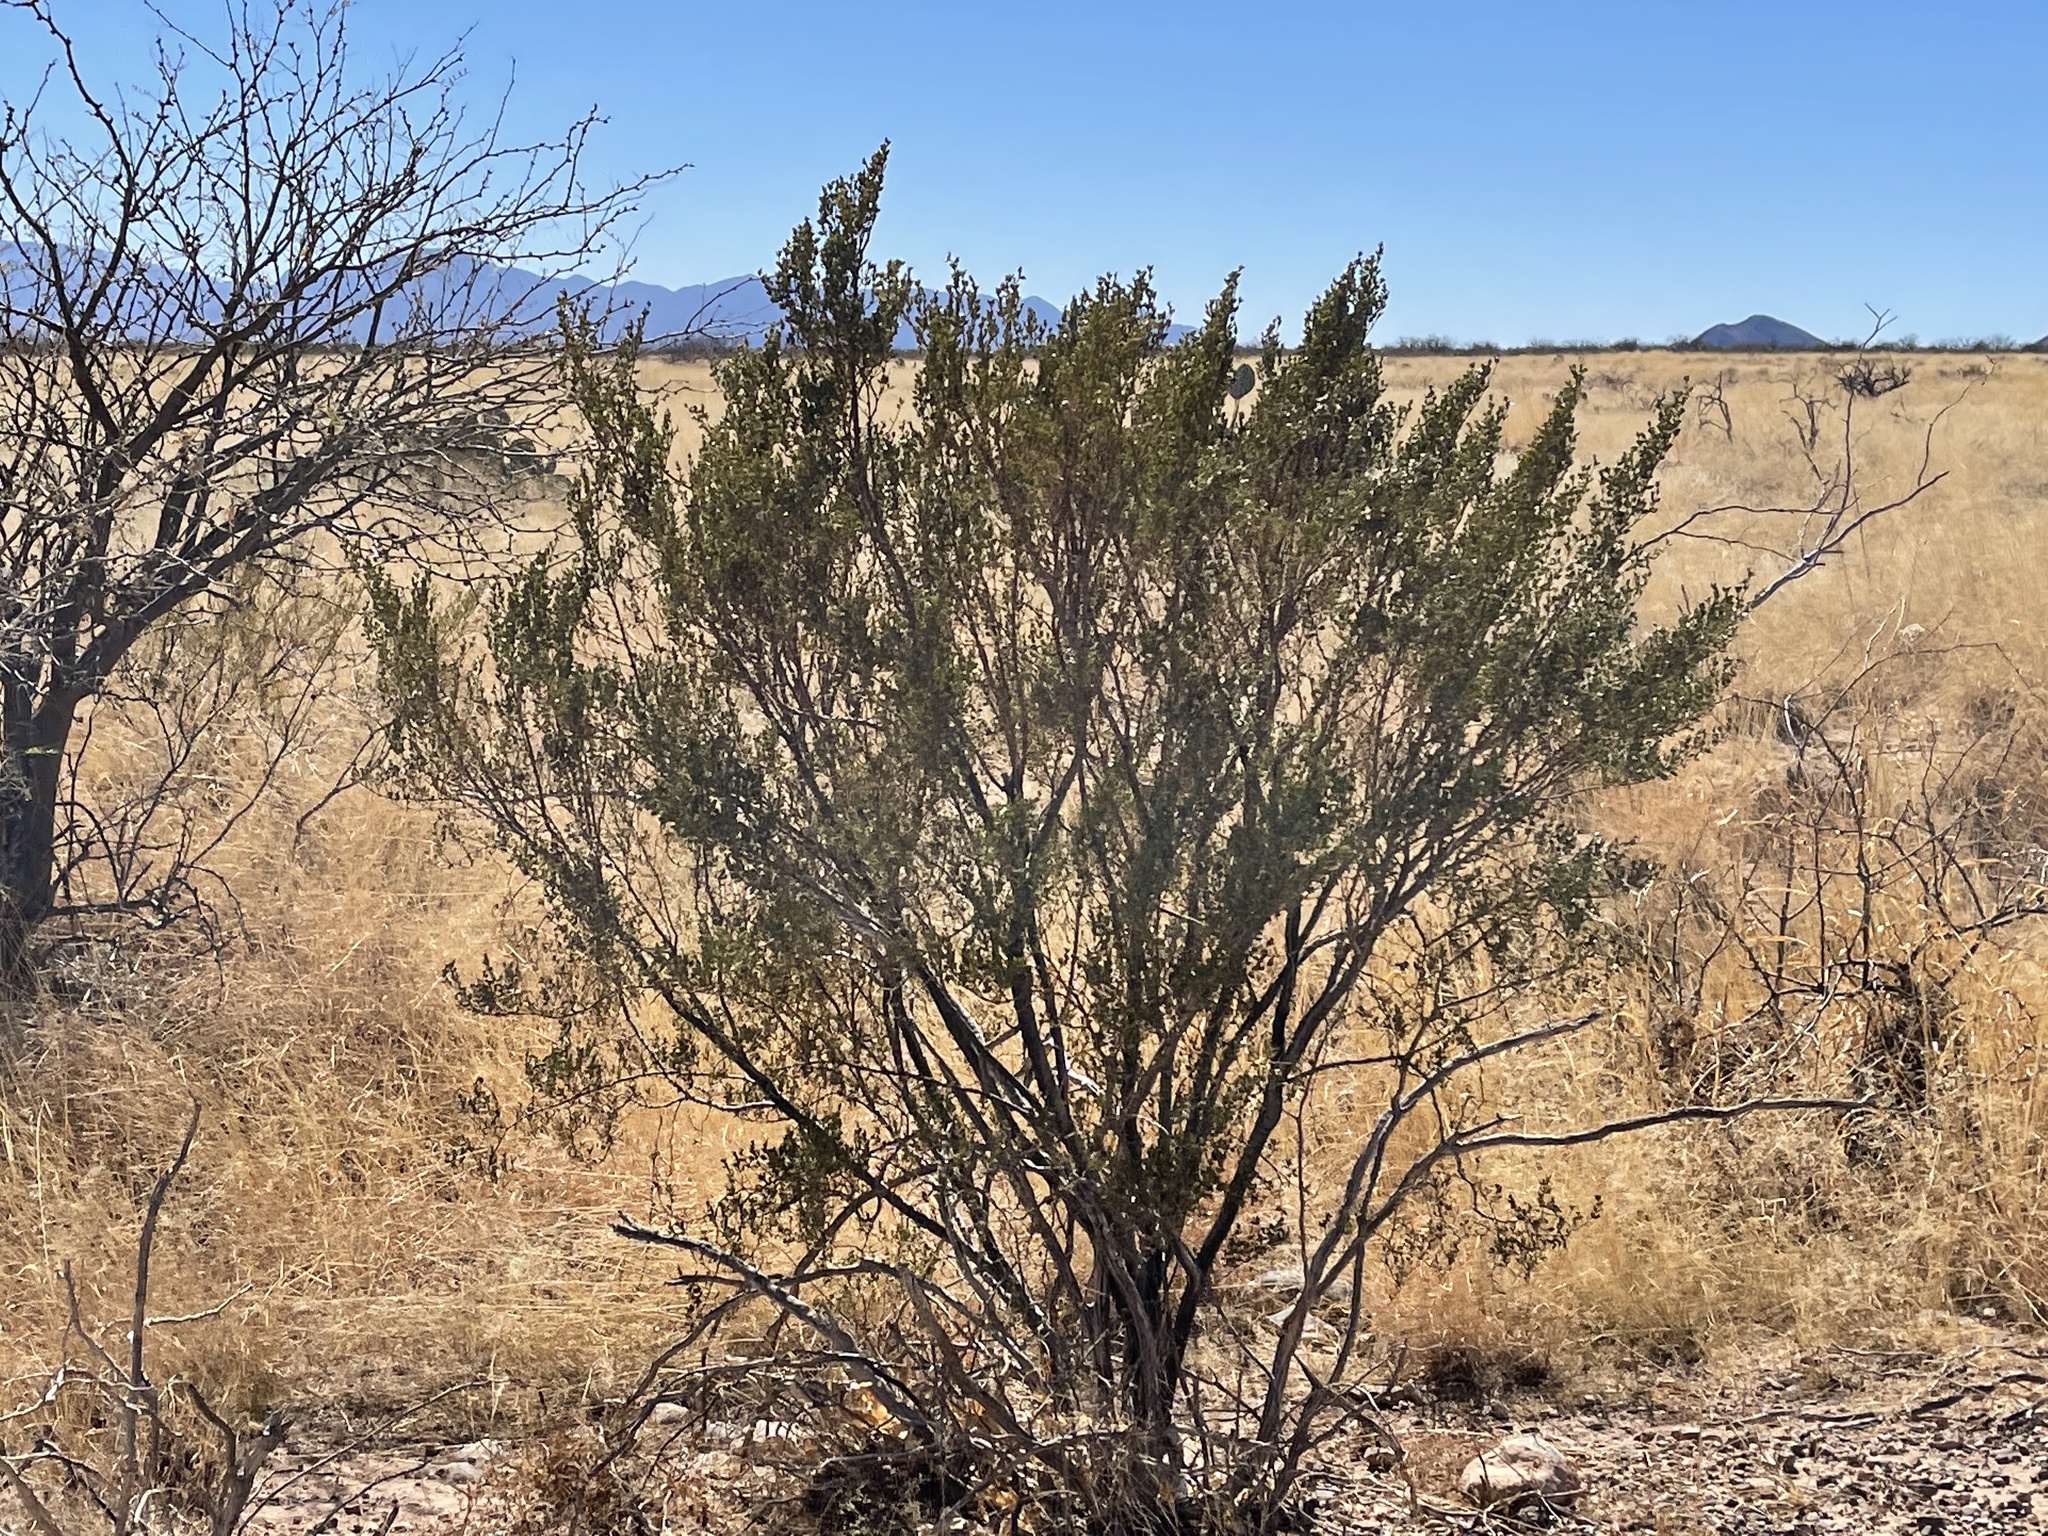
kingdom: Plantae
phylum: Tracheophyta
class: Magnoliopsida
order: Zygophyllales
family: Zygophyllaceae
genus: Larrea
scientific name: Larrea tridentata
